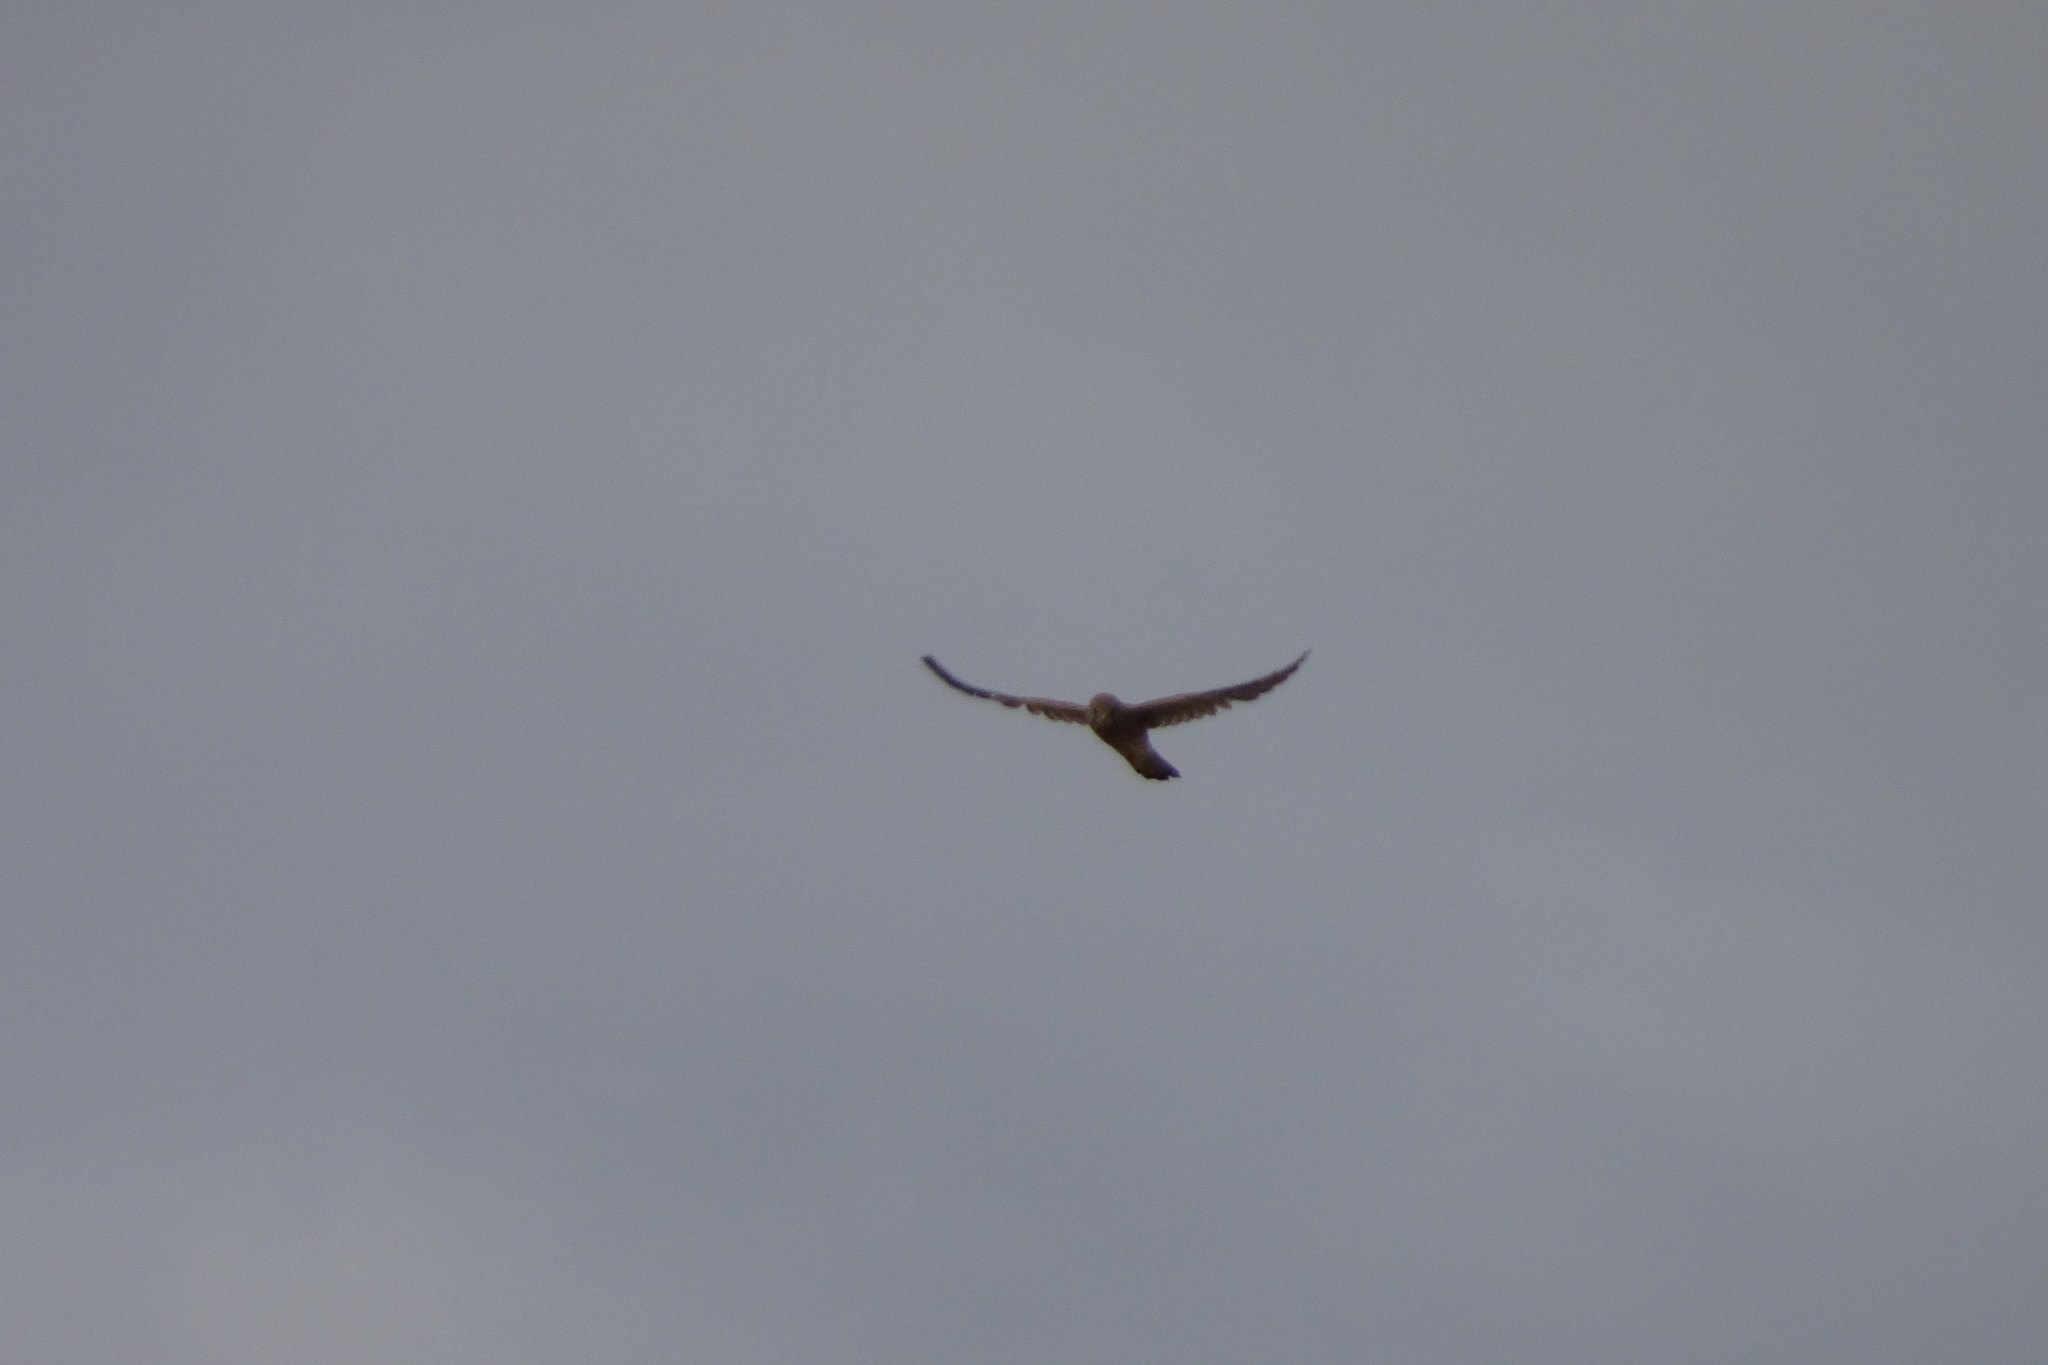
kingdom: Animalia
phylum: Chordata
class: Aves
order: Falconiformes
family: Falconidae
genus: Falco
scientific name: Falco tinnunculus
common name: Common kestrel
